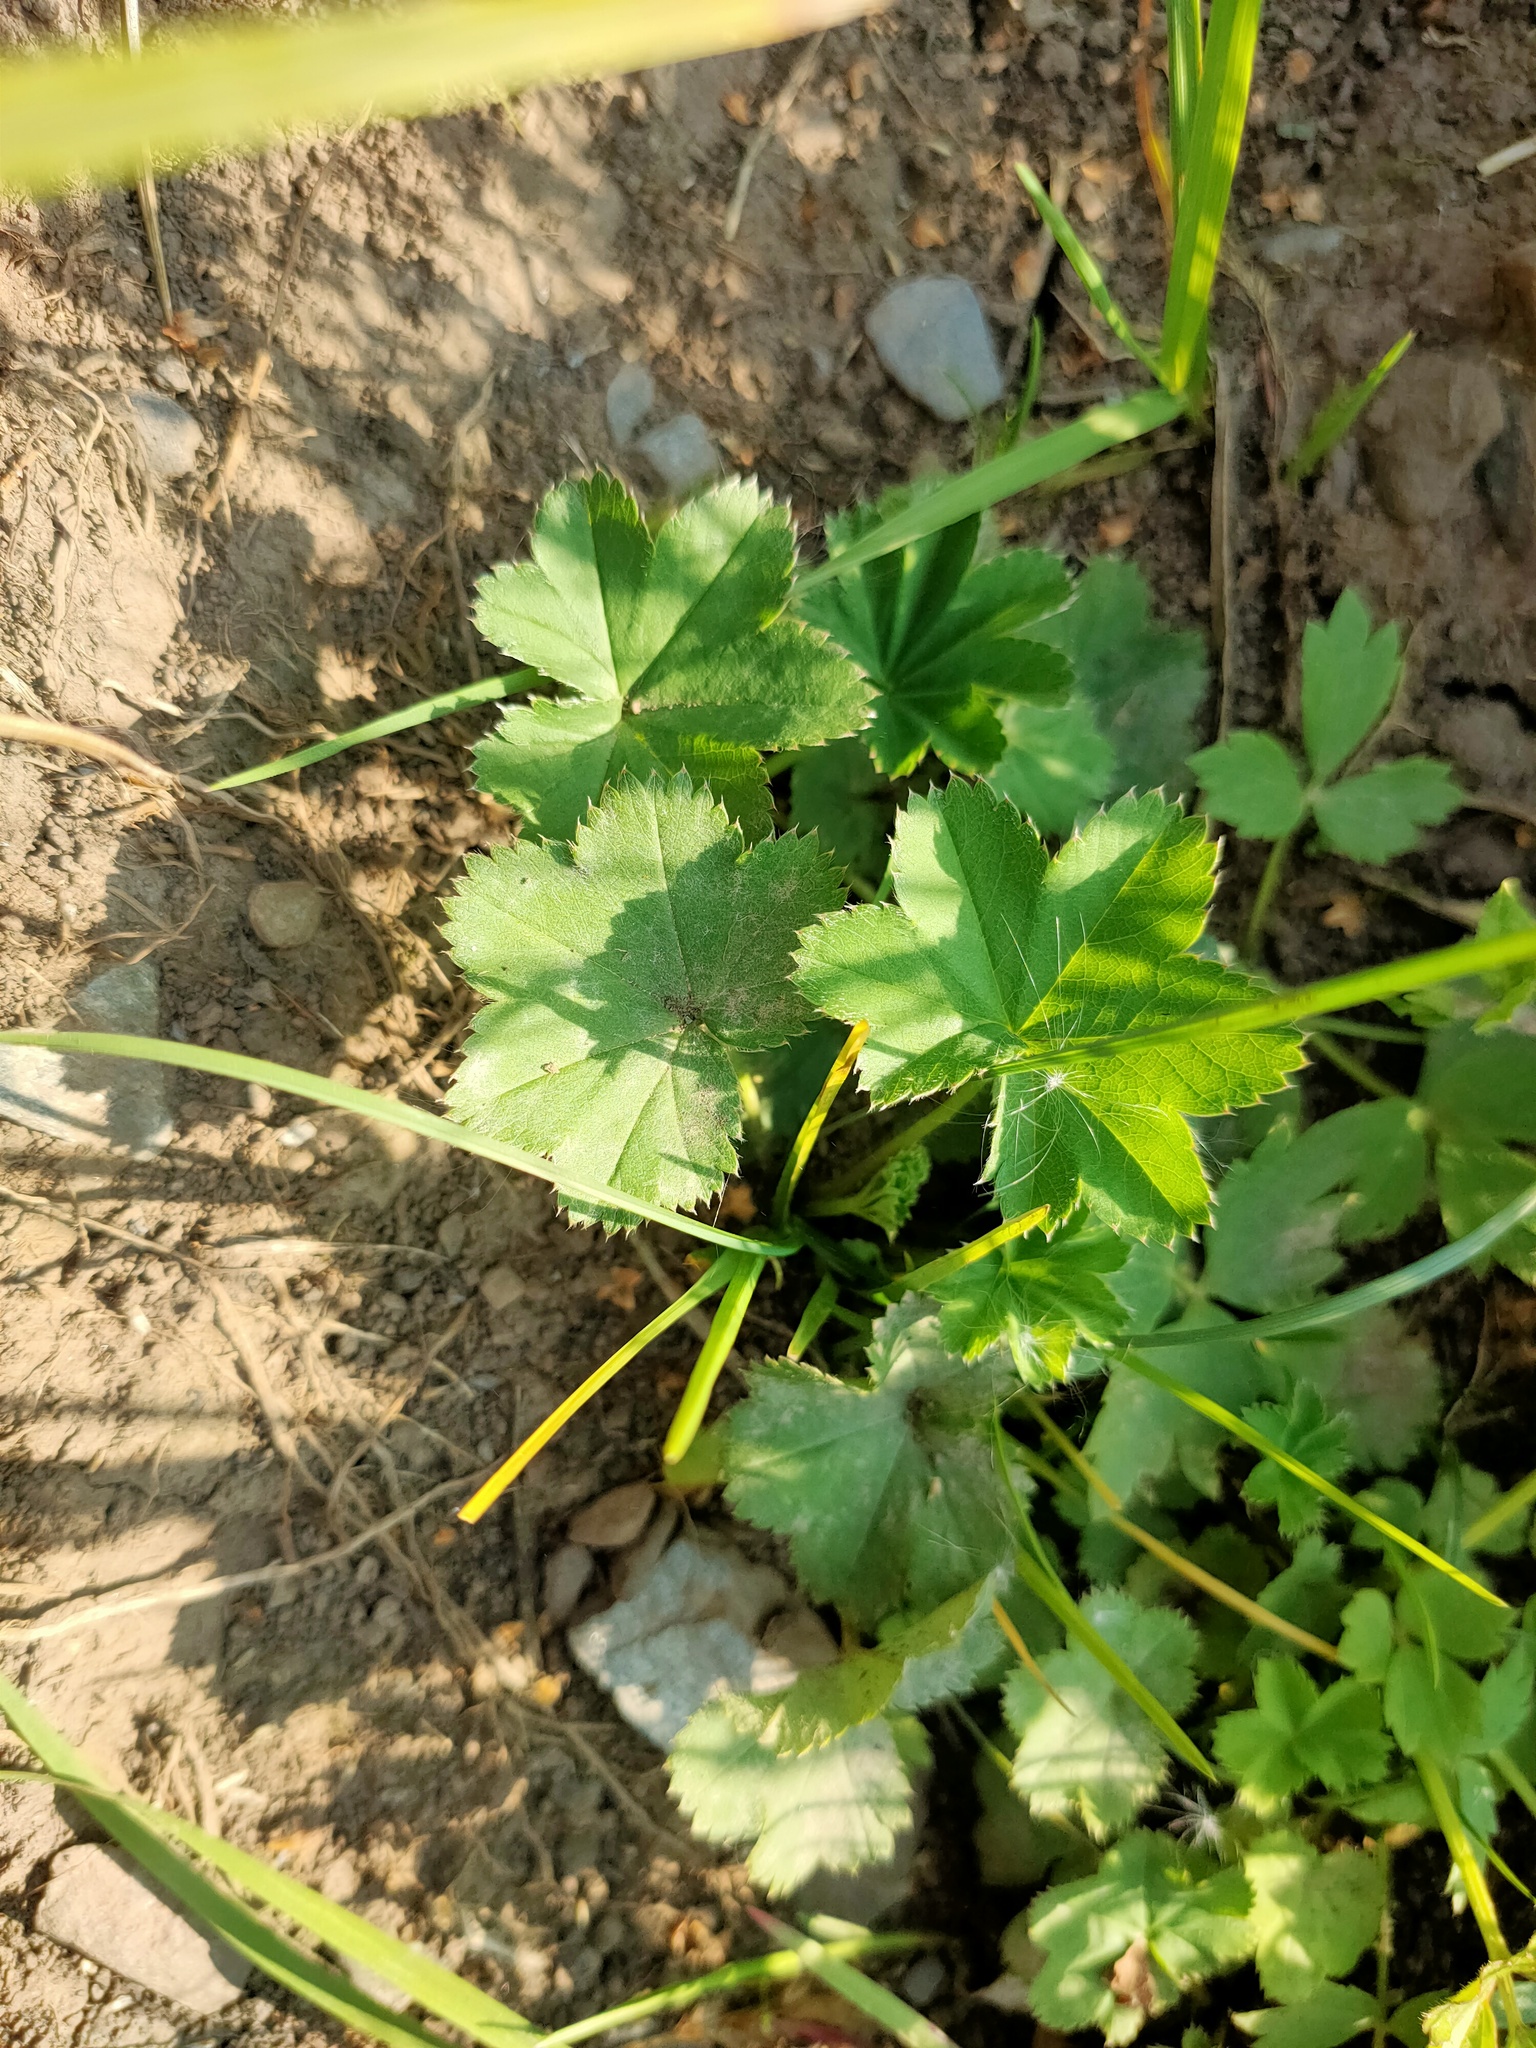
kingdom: Plantae
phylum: Tracheophyta
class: Magnoliopsida
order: Rosales
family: Rosaceae
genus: Alchemilla
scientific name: Alchemilla
